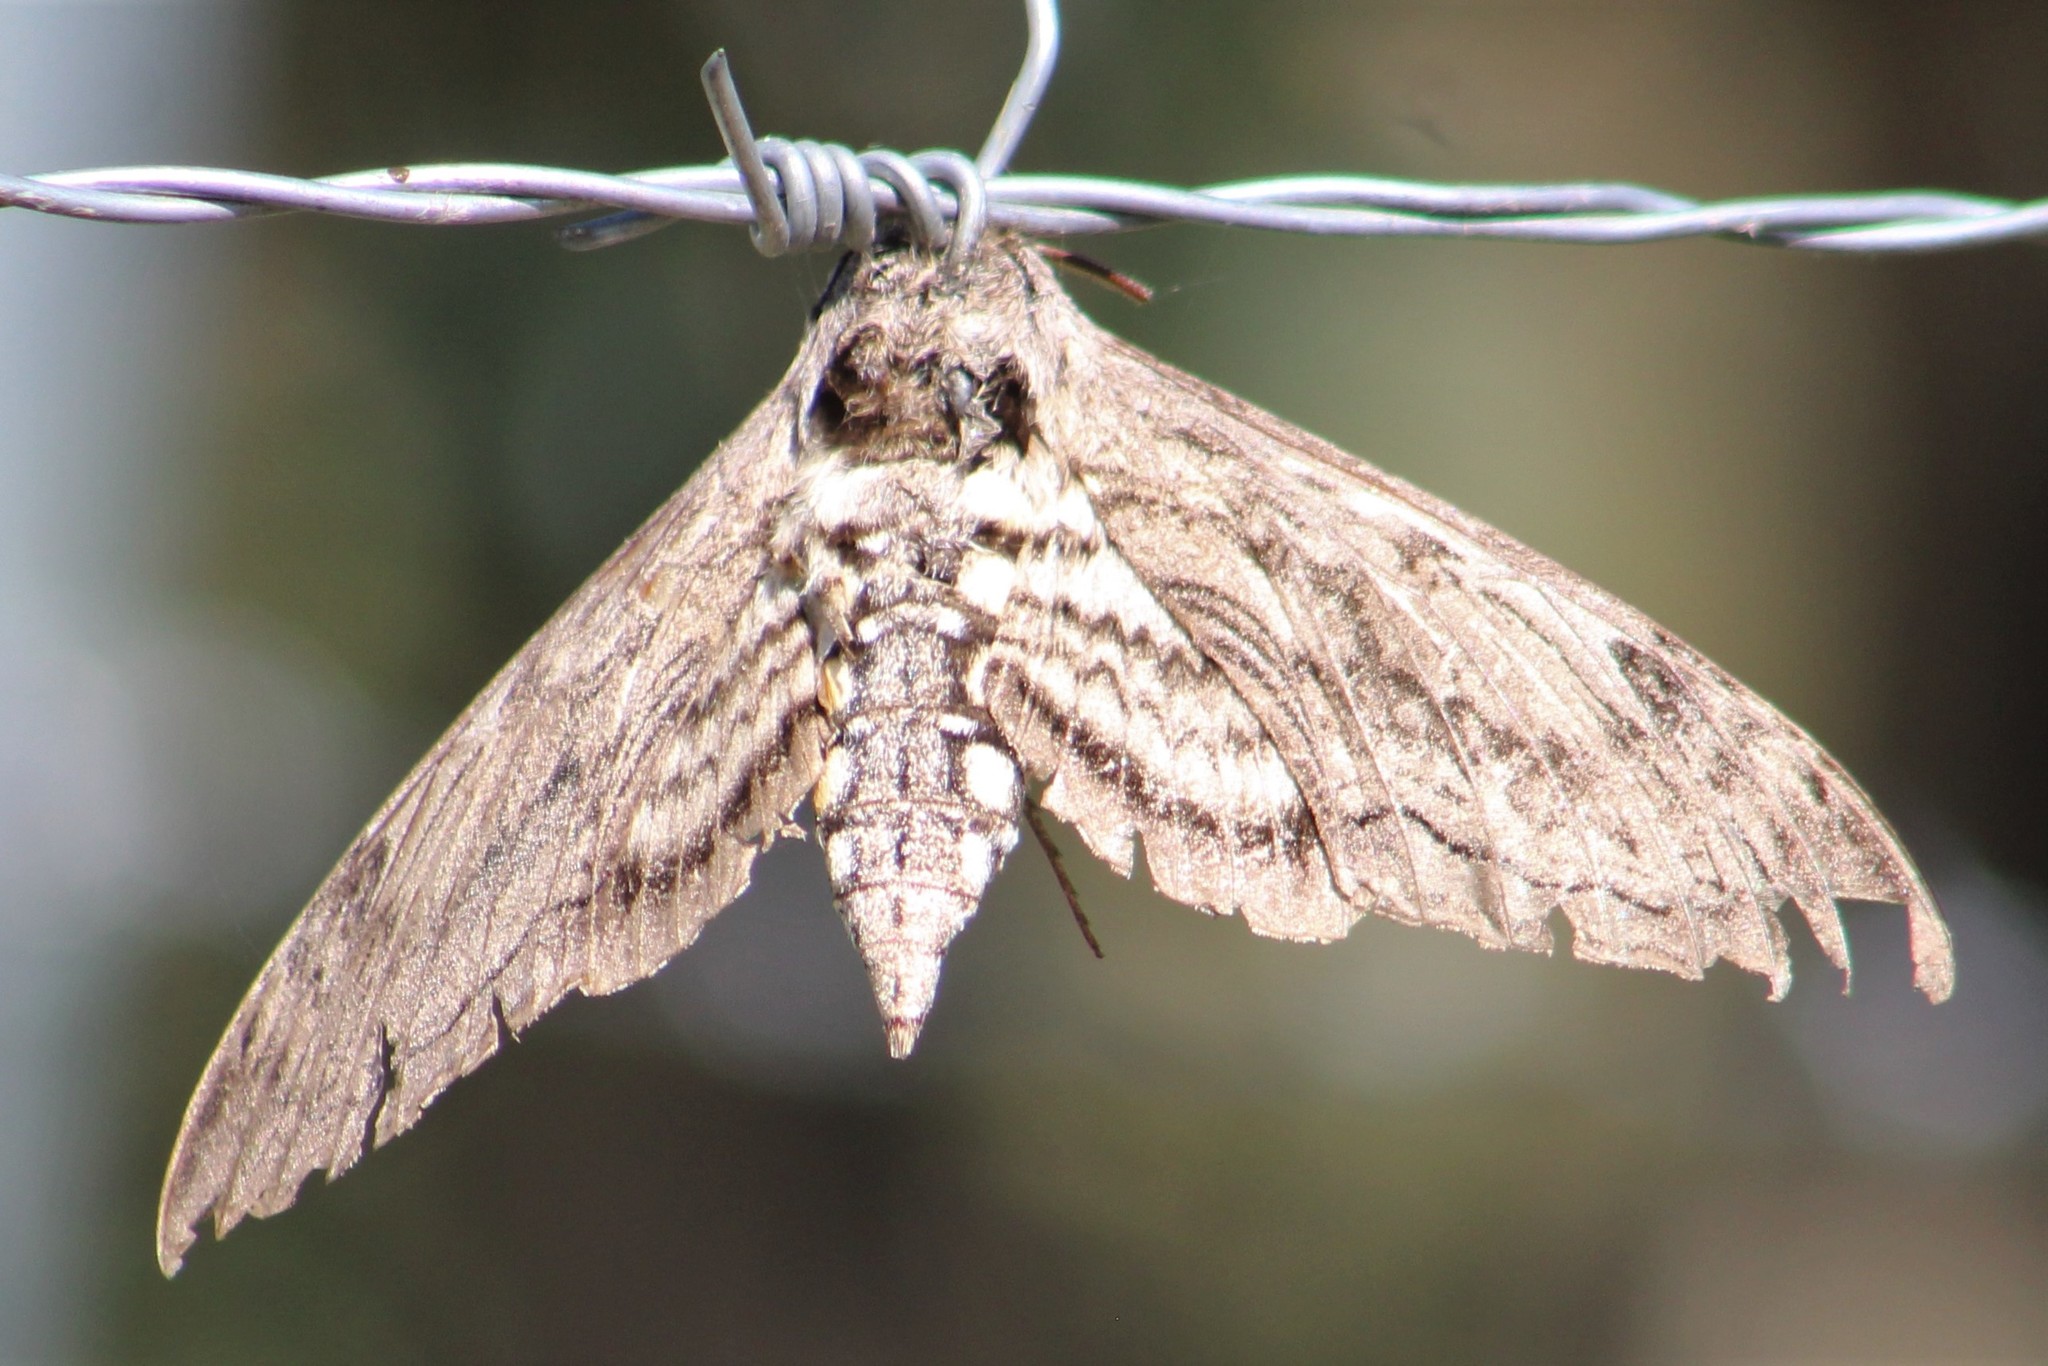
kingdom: Animalia
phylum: Arthropoda
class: Insecta
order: Lepidoptera
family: Sphingidae
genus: Manduca
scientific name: Manduca quinquemaculatus
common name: Five-spotted hawk-moth
